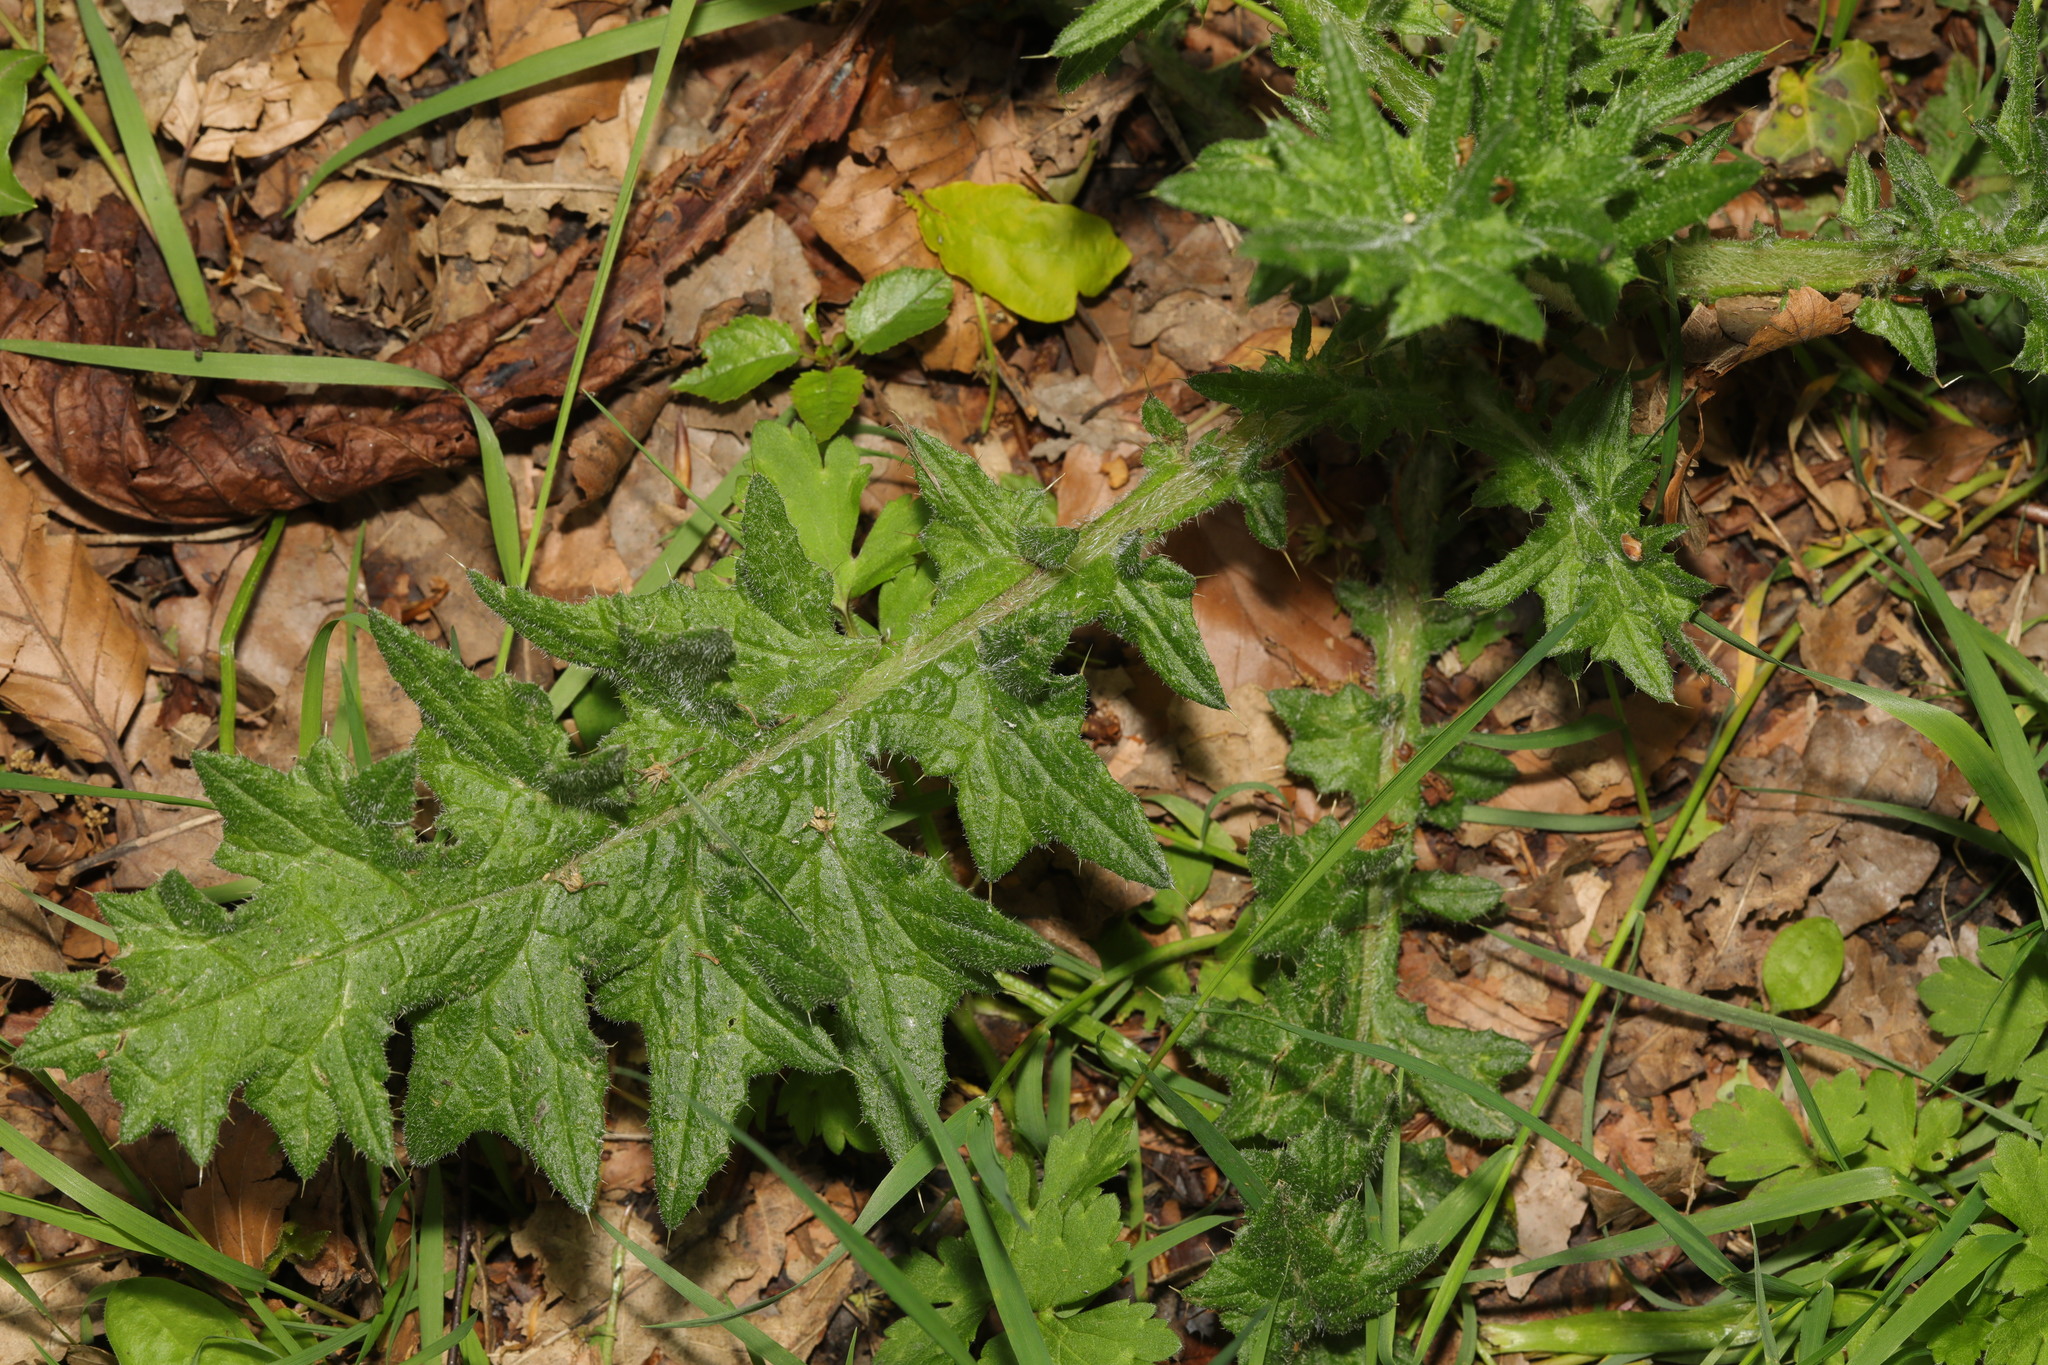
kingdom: Plantae
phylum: Tracheophyta
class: Magnoliopsida
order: Asterales
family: Asteraceae
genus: Cirsium
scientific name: Cirsium vulgare
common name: Bull thistle
